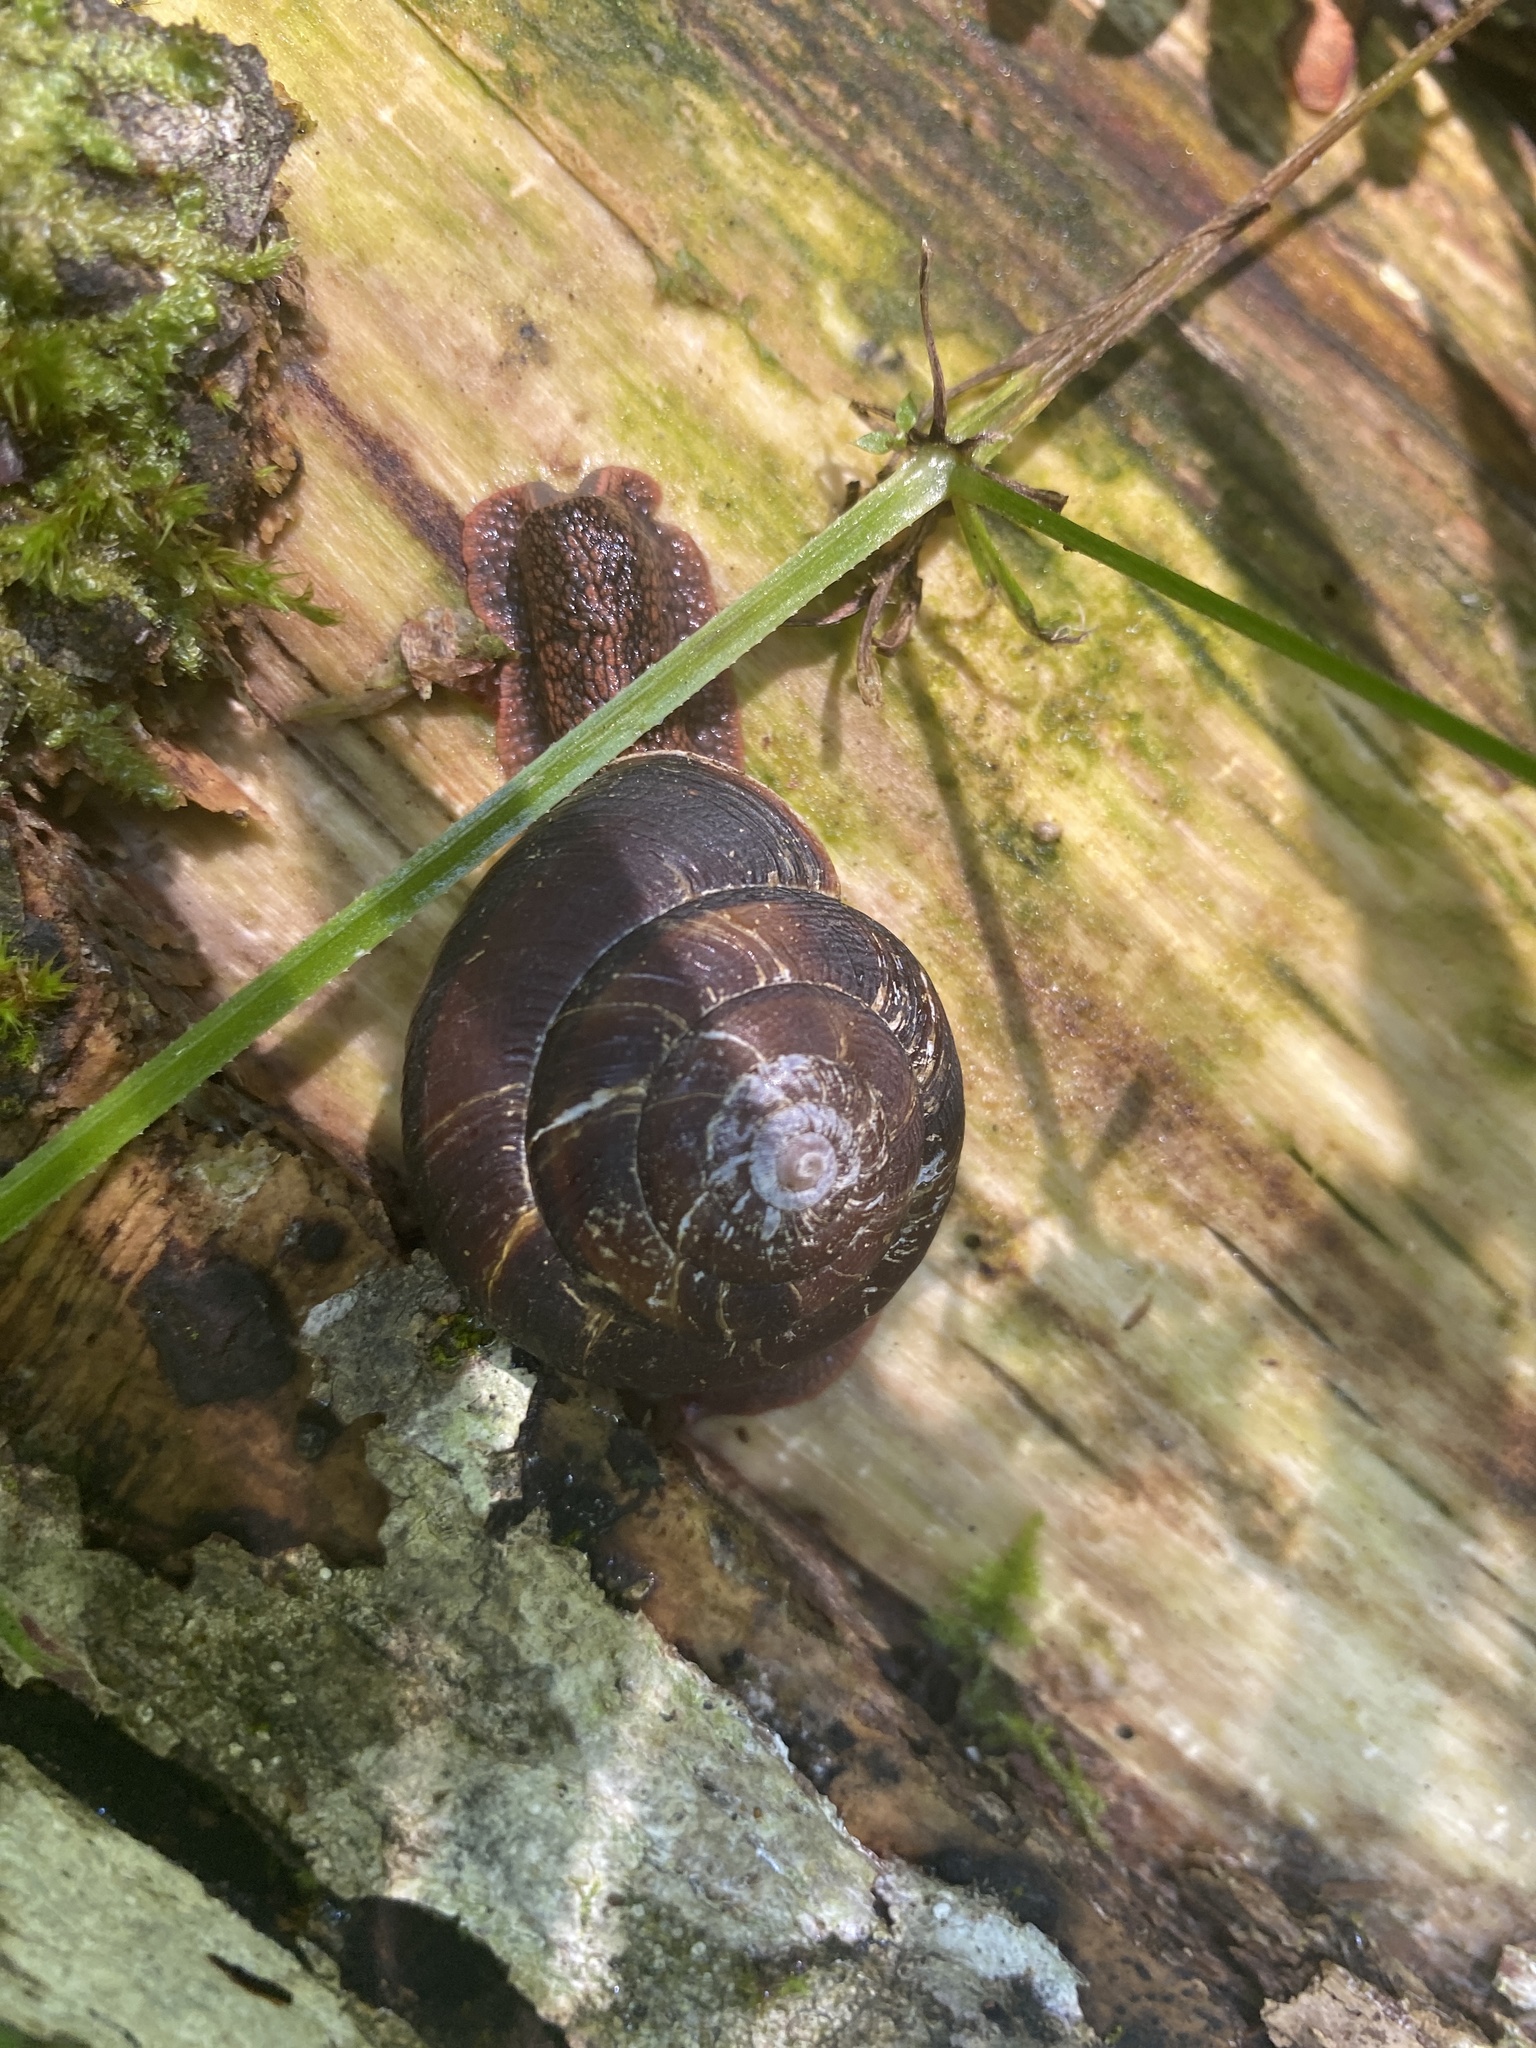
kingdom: Animalia
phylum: Mollusca
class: Gastropoda
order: Stylommatophora
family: Xanthonychidae
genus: Monadenia
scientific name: Monadenia fidelis
